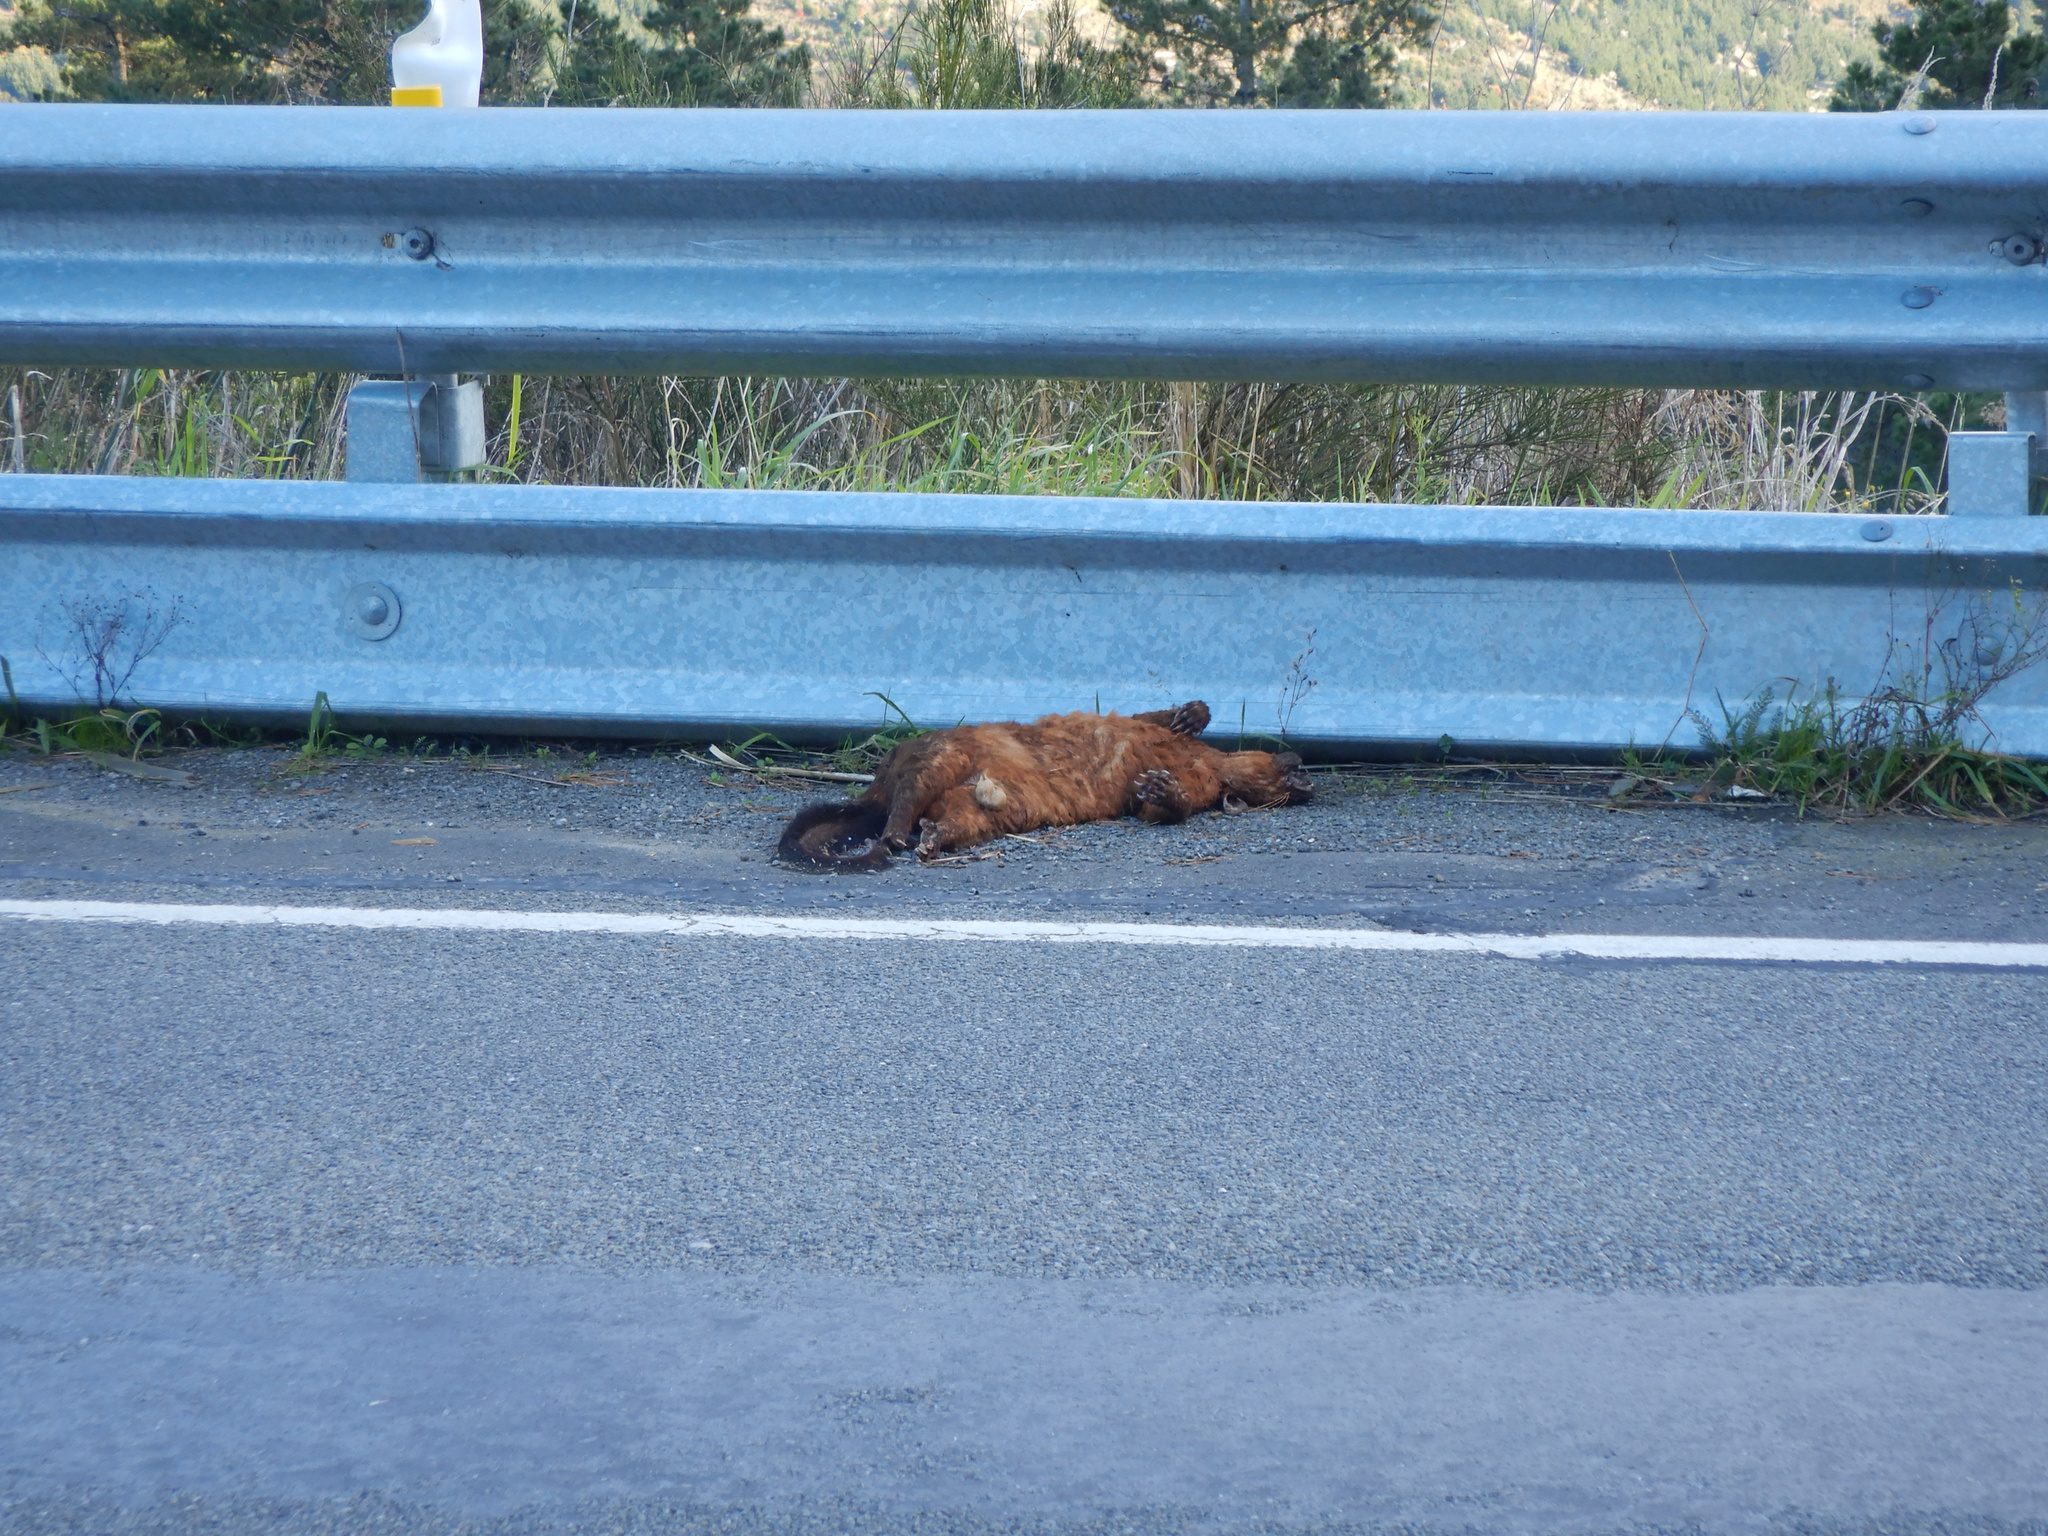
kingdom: Animalia
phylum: Chordata
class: Mammalia
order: Diprotodontia
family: Phalangeridae
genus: Trichosurus
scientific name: Trichosurus vulpecula
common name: Common brushtail
